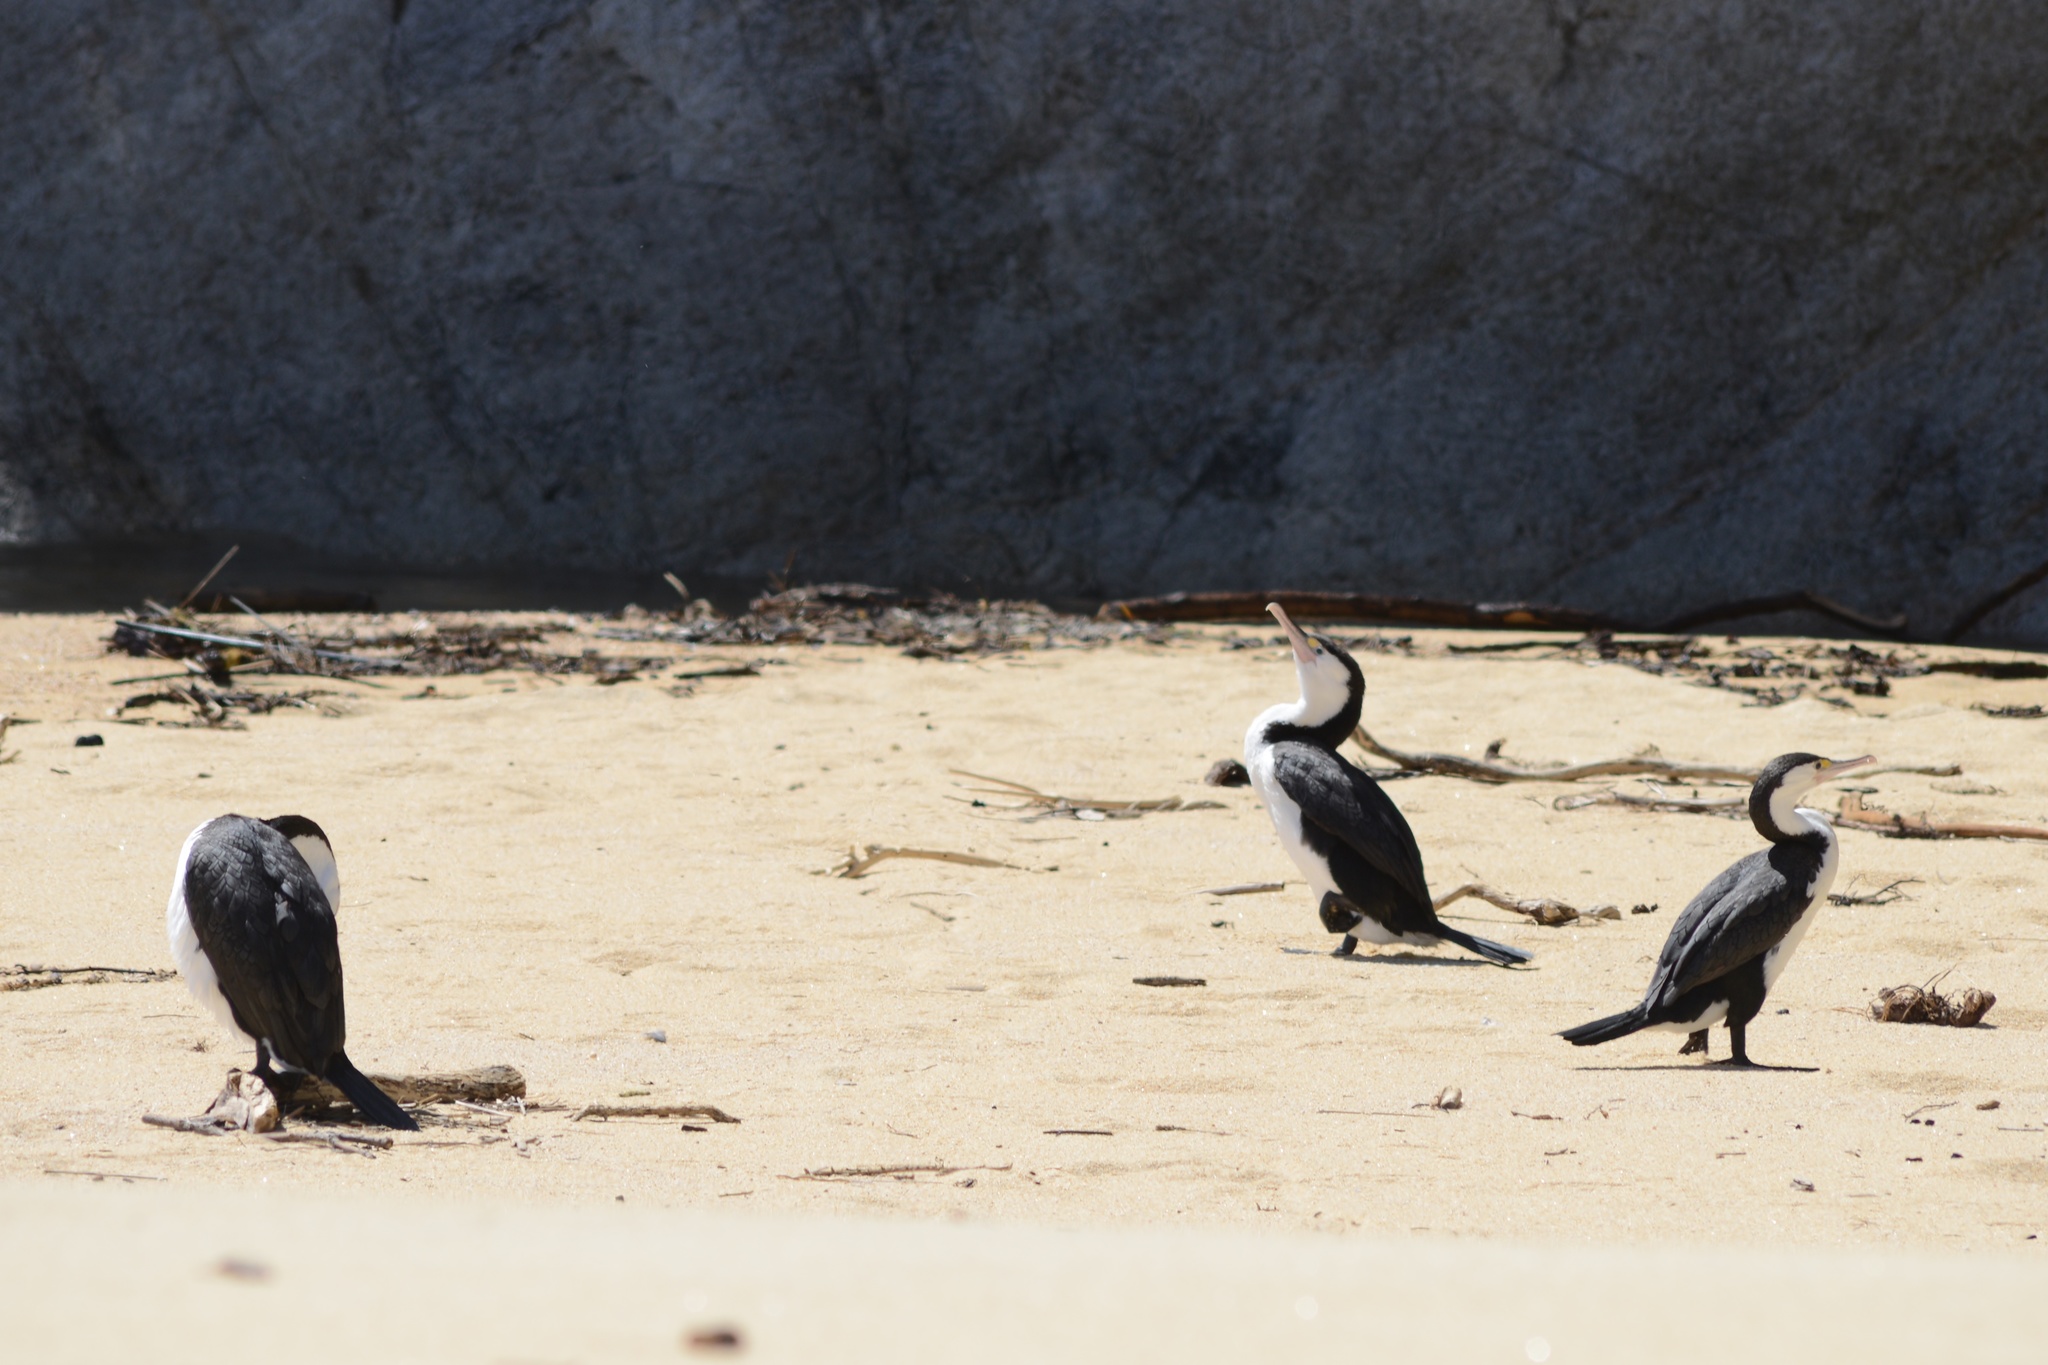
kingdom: Animalia
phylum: Chordata
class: Aves
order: Suliformes
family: Phalacrocoracidae
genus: Phalacrocorax
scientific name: Phalacrocorax varius
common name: Pied cormorant
